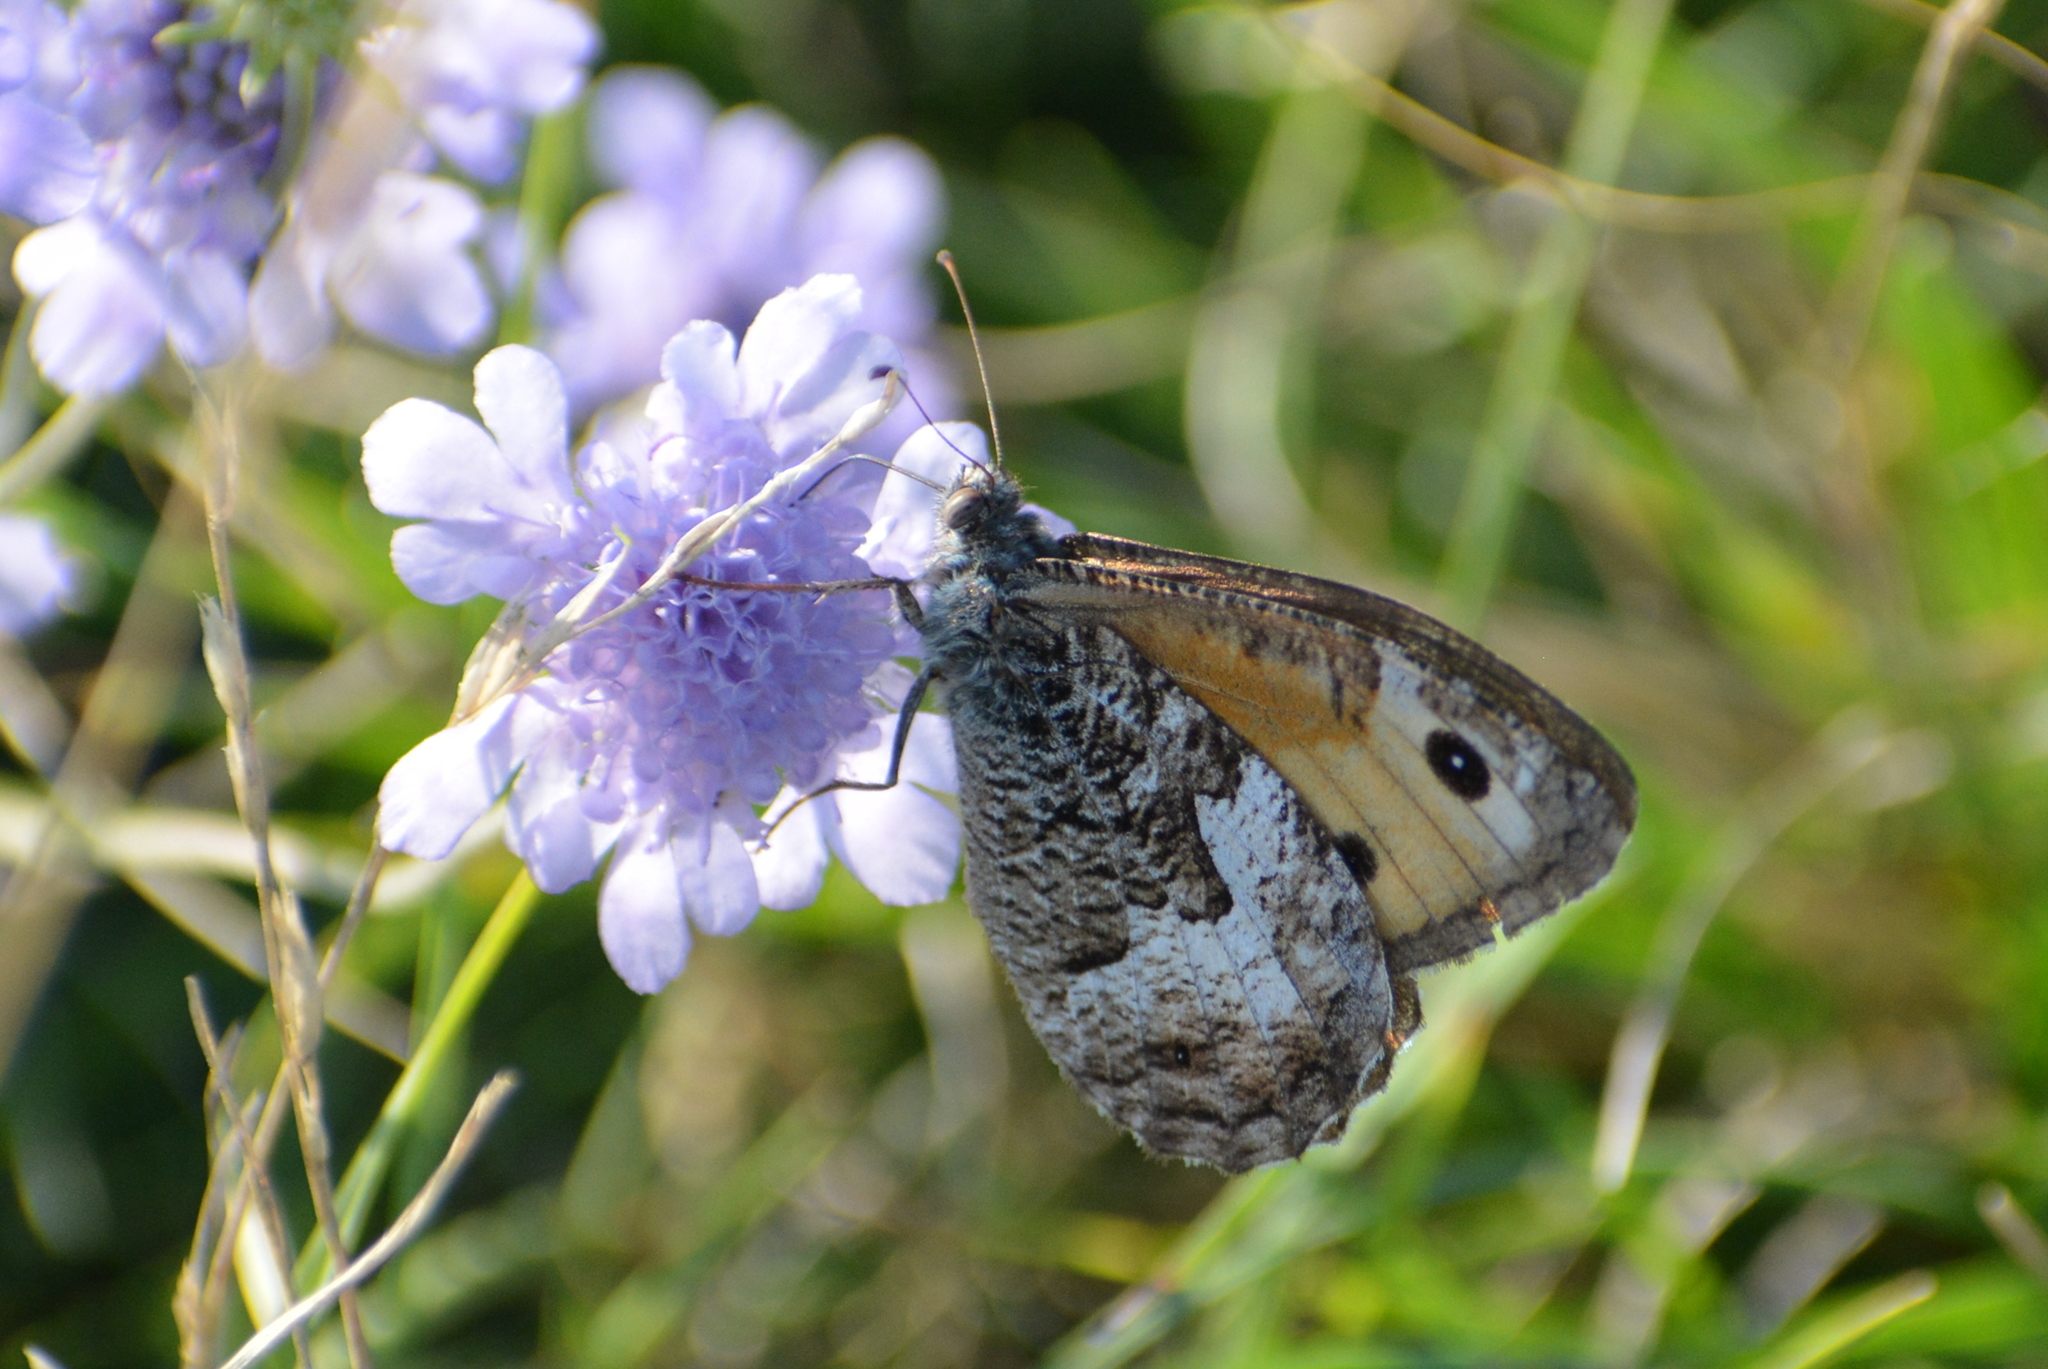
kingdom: Animalia
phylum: Arthropoda
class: Insecta
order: Lepidoptera
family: Nymphalidae
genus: Hipparchia
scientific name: Hipparchia semele
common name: Grayling
